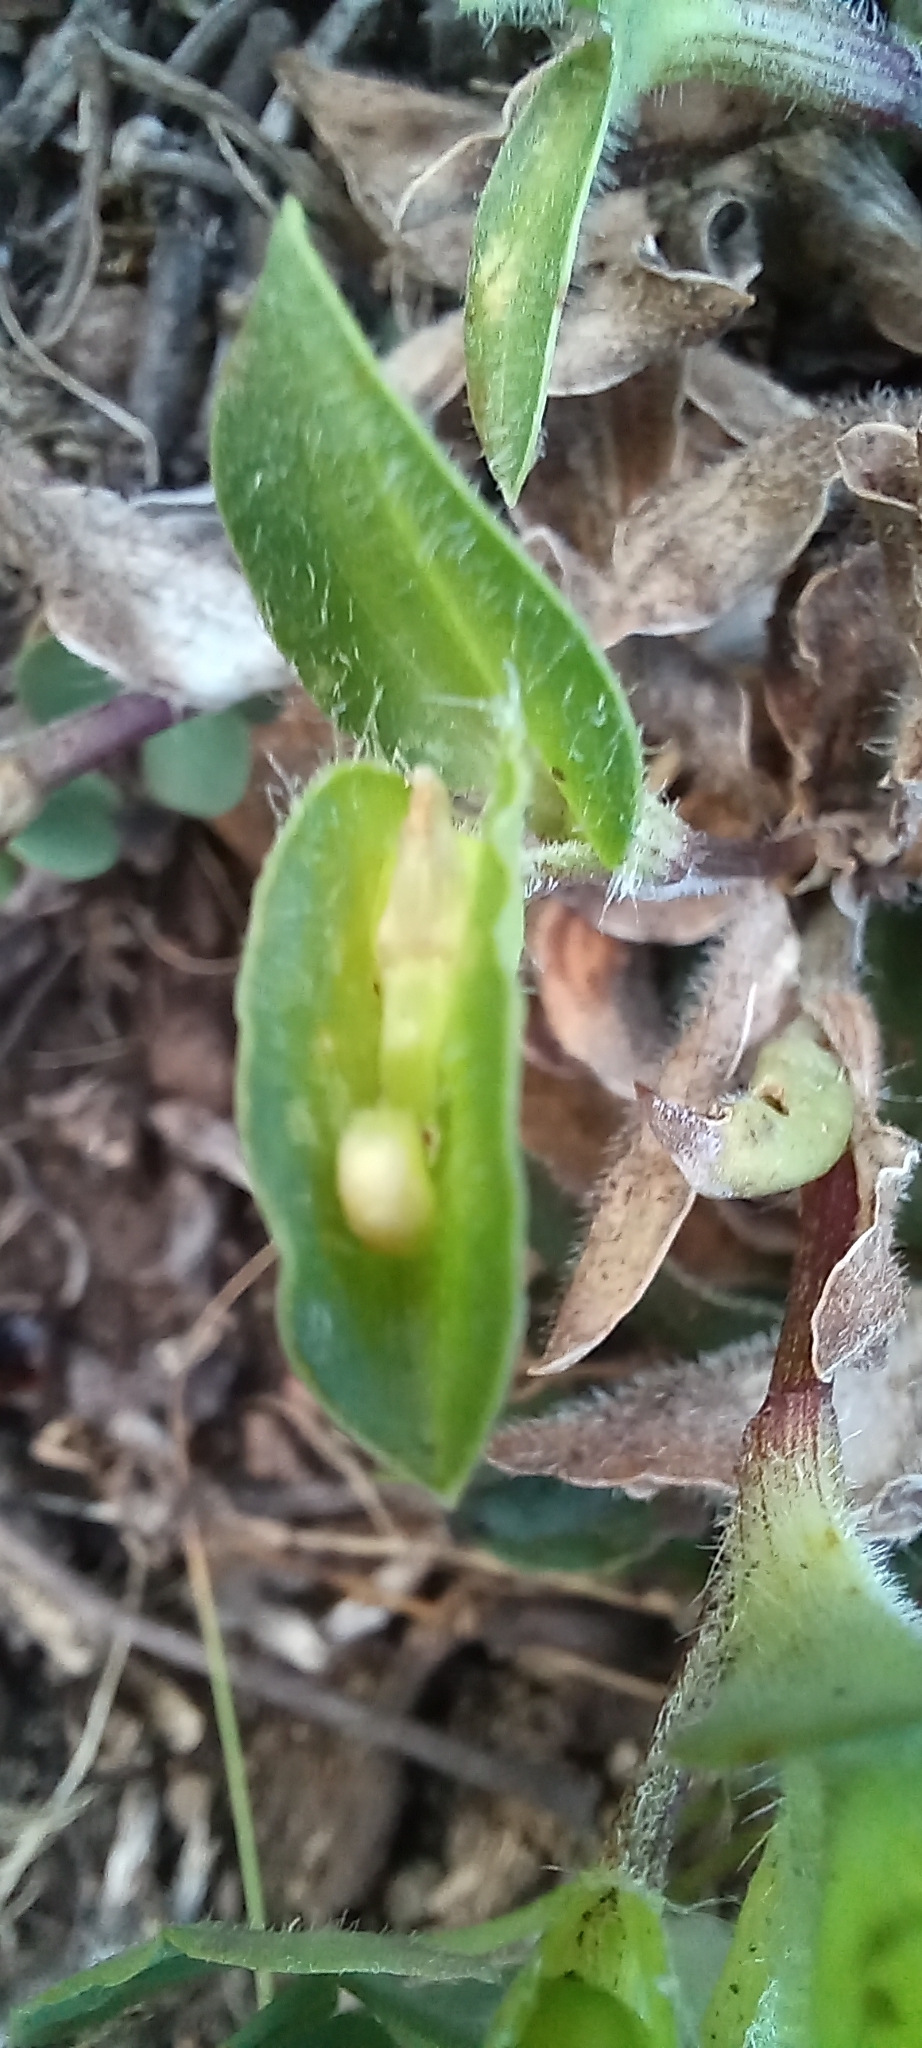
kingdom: Plantae
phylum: Tracheophyta
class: Liliopsida
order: Commelinales
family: Commelinaceae
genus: Commelina
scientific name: Commelina africana
